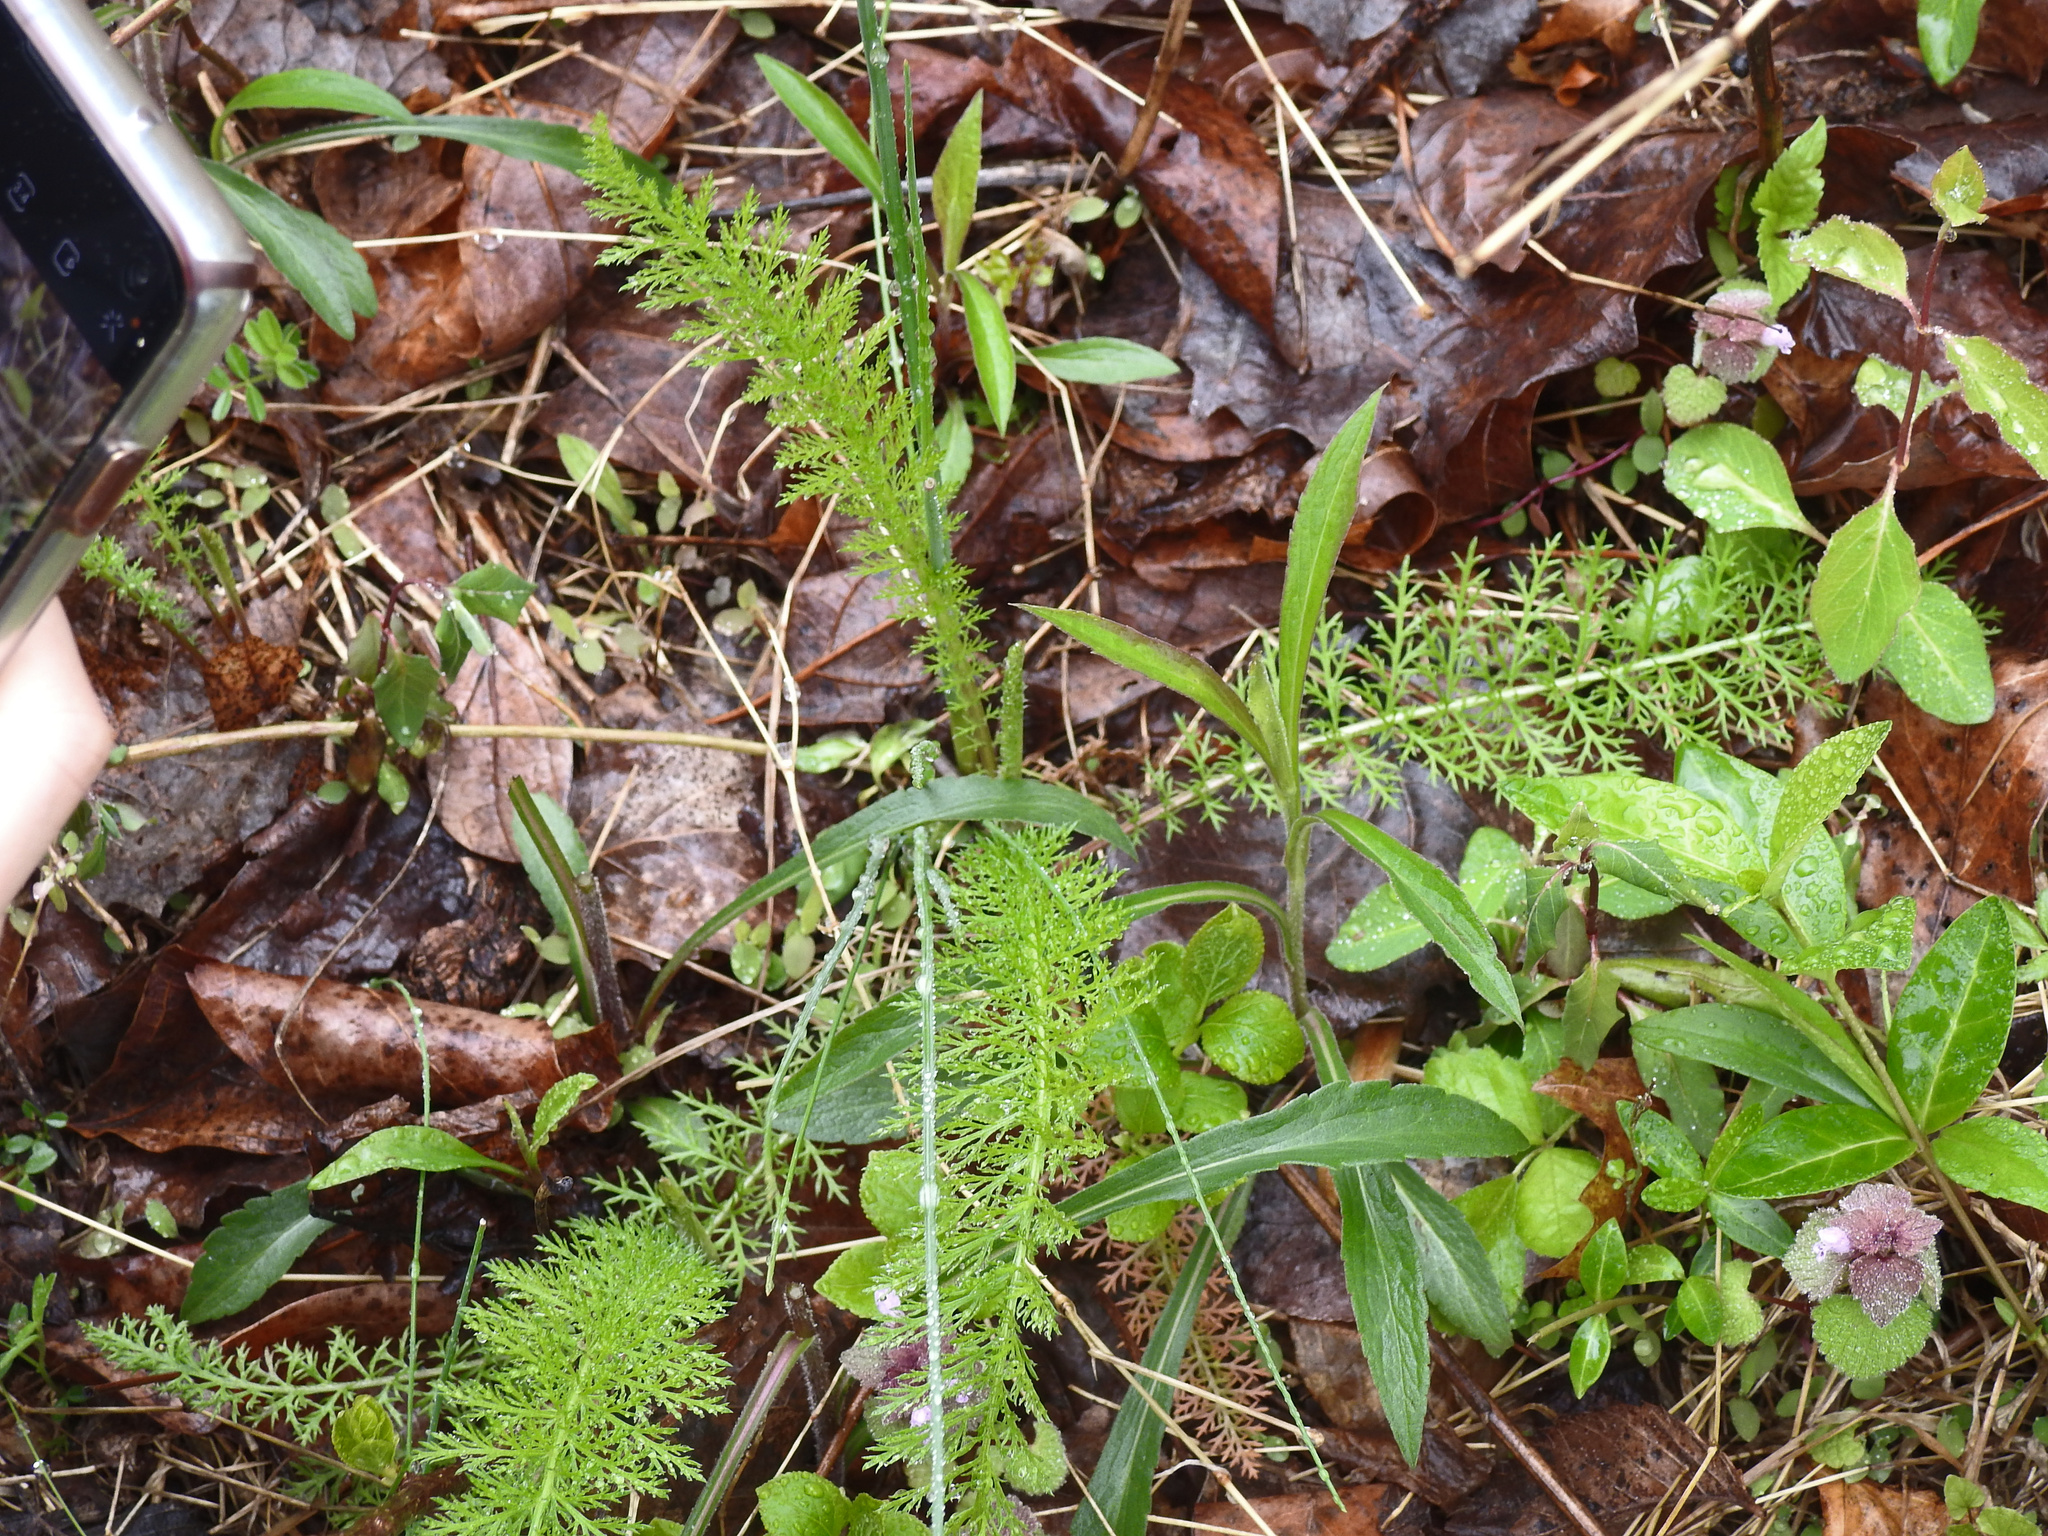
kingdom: Plantae
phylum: Tracheophyta
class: Magnoliopsida
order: Asterales
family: Asteraceae
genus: Achillea
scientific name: Achillea millefolium
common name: Yarrow
